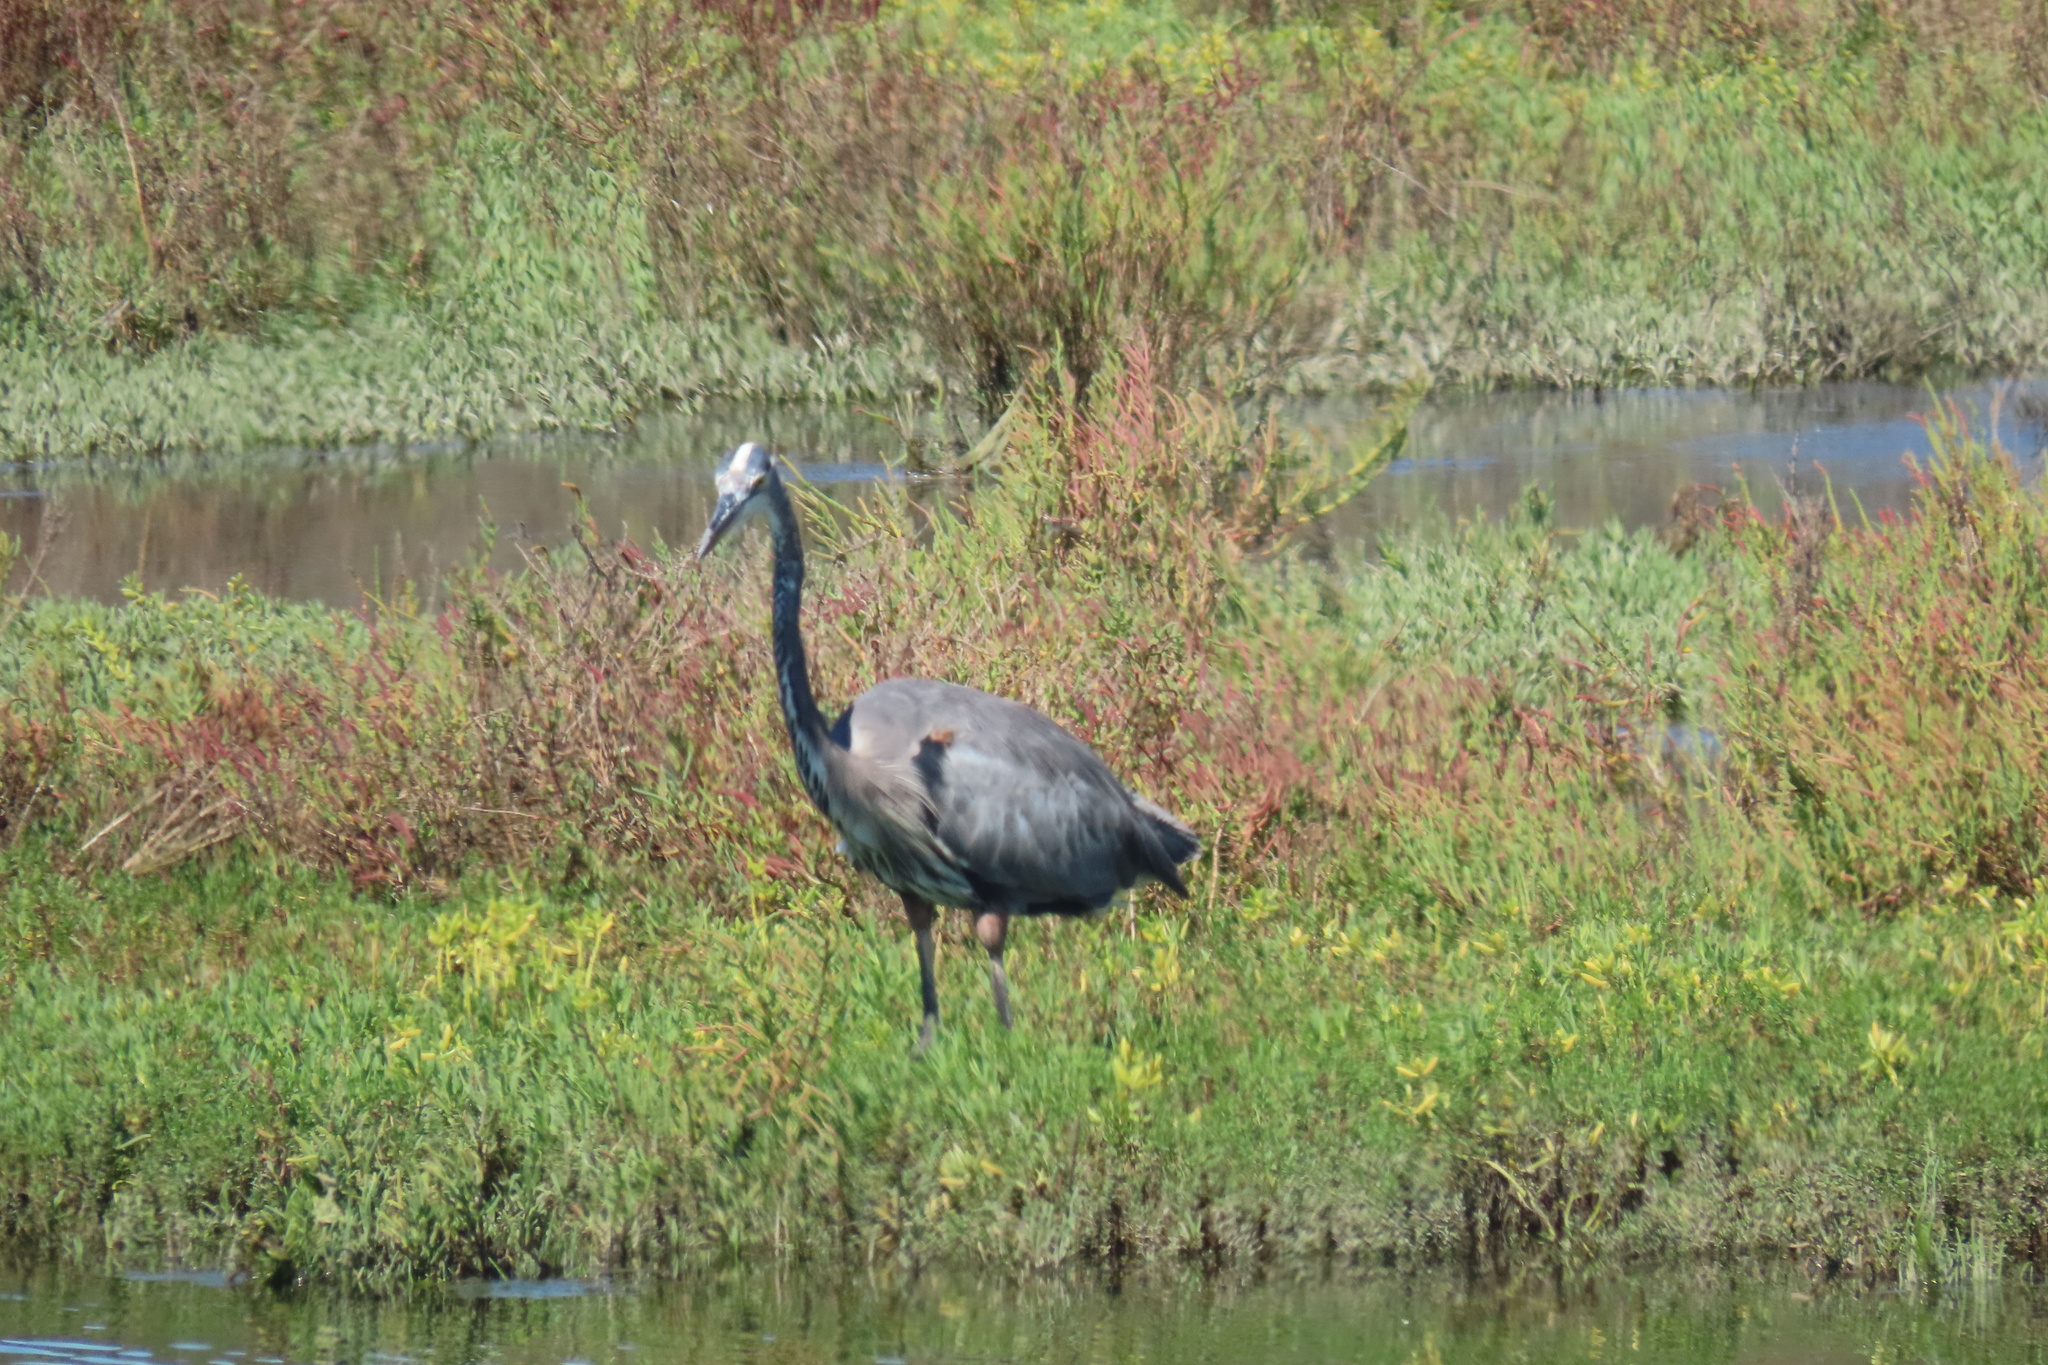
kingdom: Animalia
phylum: Chordata
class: Aves
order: Pelecaniformes
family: Ardeidae
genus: Ardea
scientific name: Ardea herodias
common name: Great blue heron
